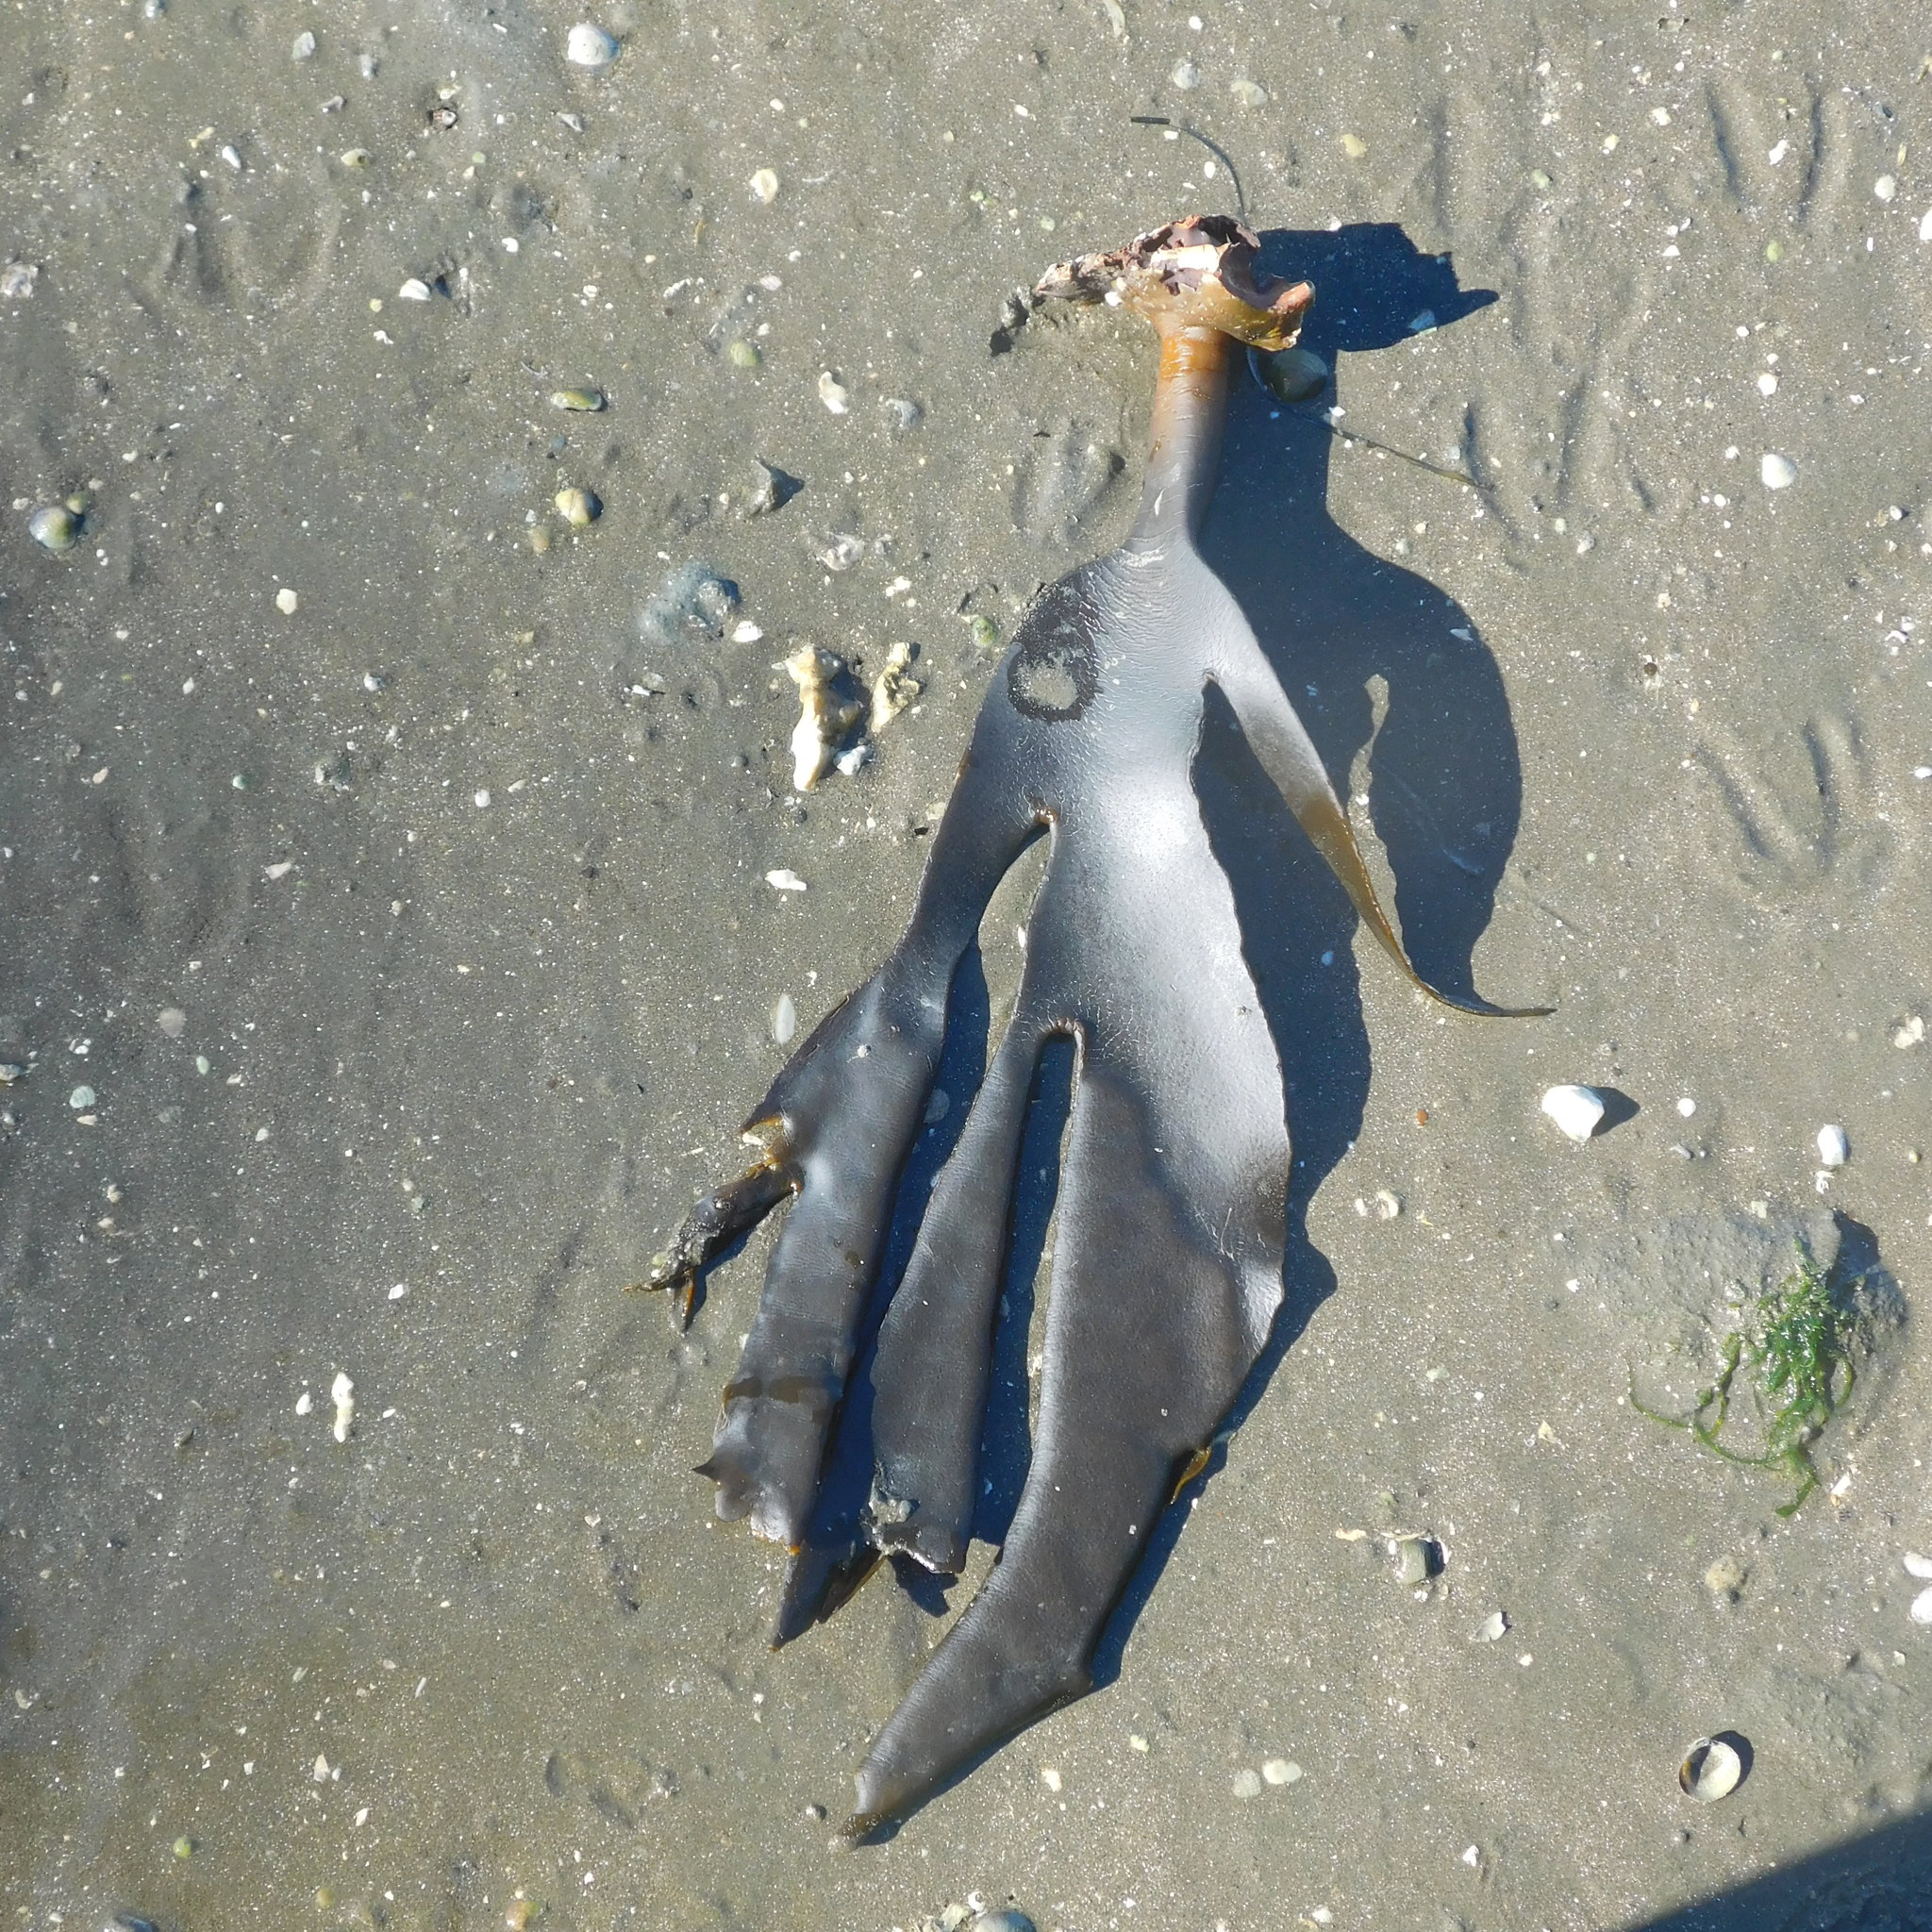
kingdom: Chromista
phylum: Ochrophyta
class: Phaeophyceae
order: Fucales
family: Durvillaeaceae
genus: Durvillaea
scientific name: Durvillaea antarctica
